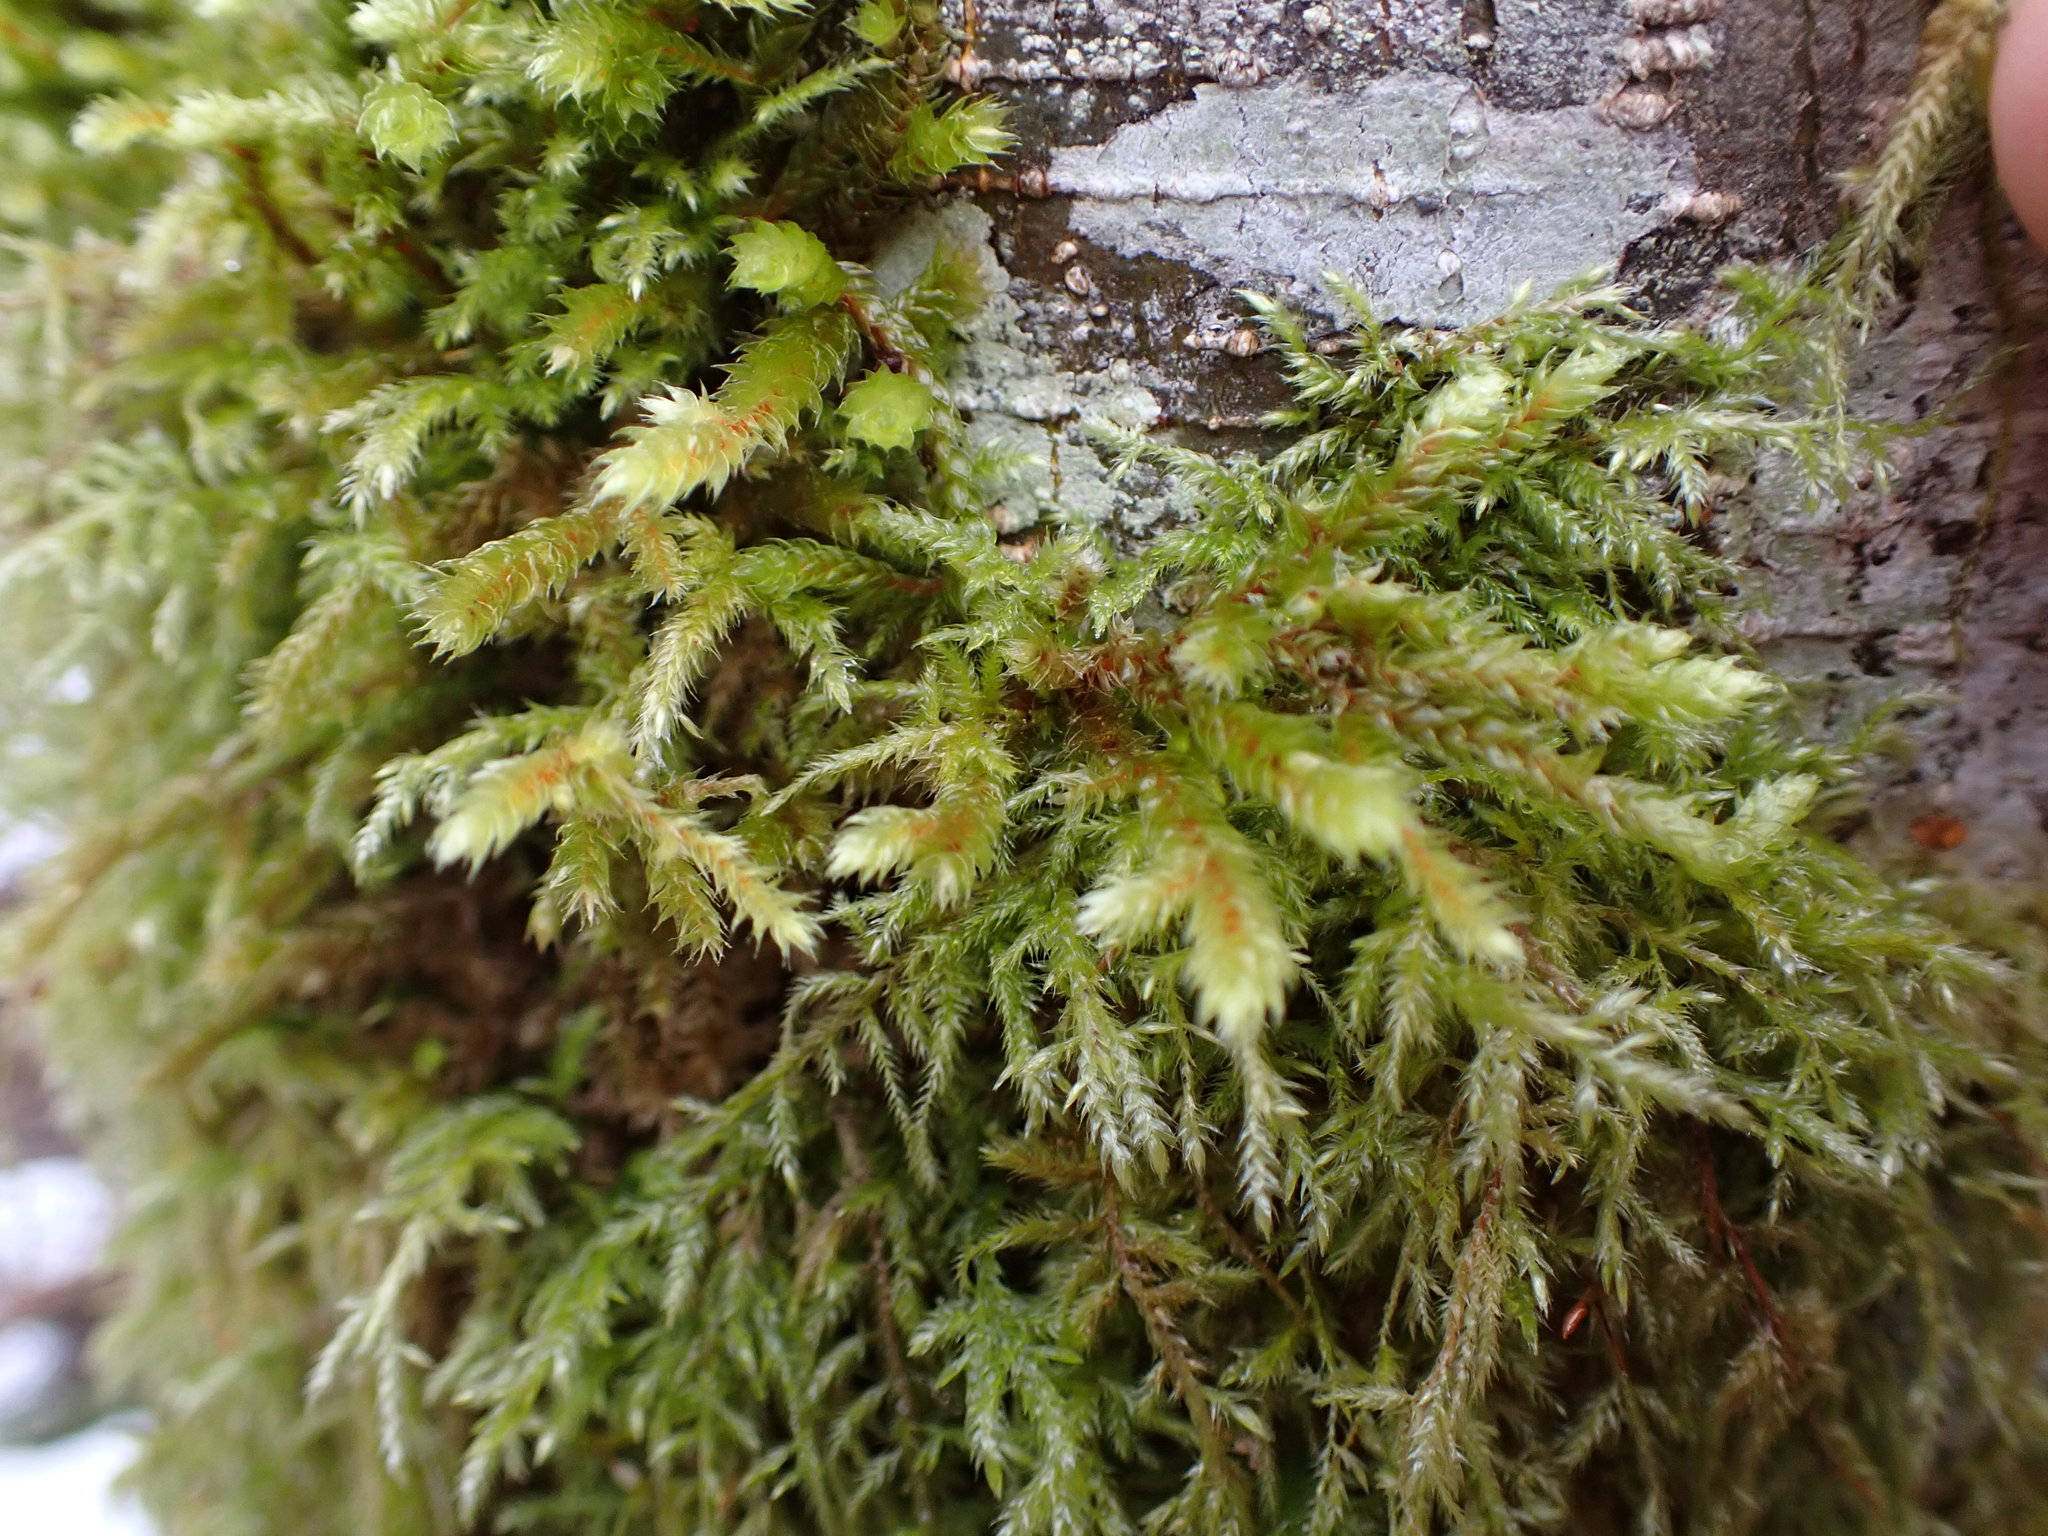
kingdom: Plantae
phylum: Bryophyta
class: Bryopsida
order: Hypnales
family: Antitrichiaceae
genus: Antitrichia
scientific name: Antitrichia curtipendula
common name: Pendulous wing-moss
